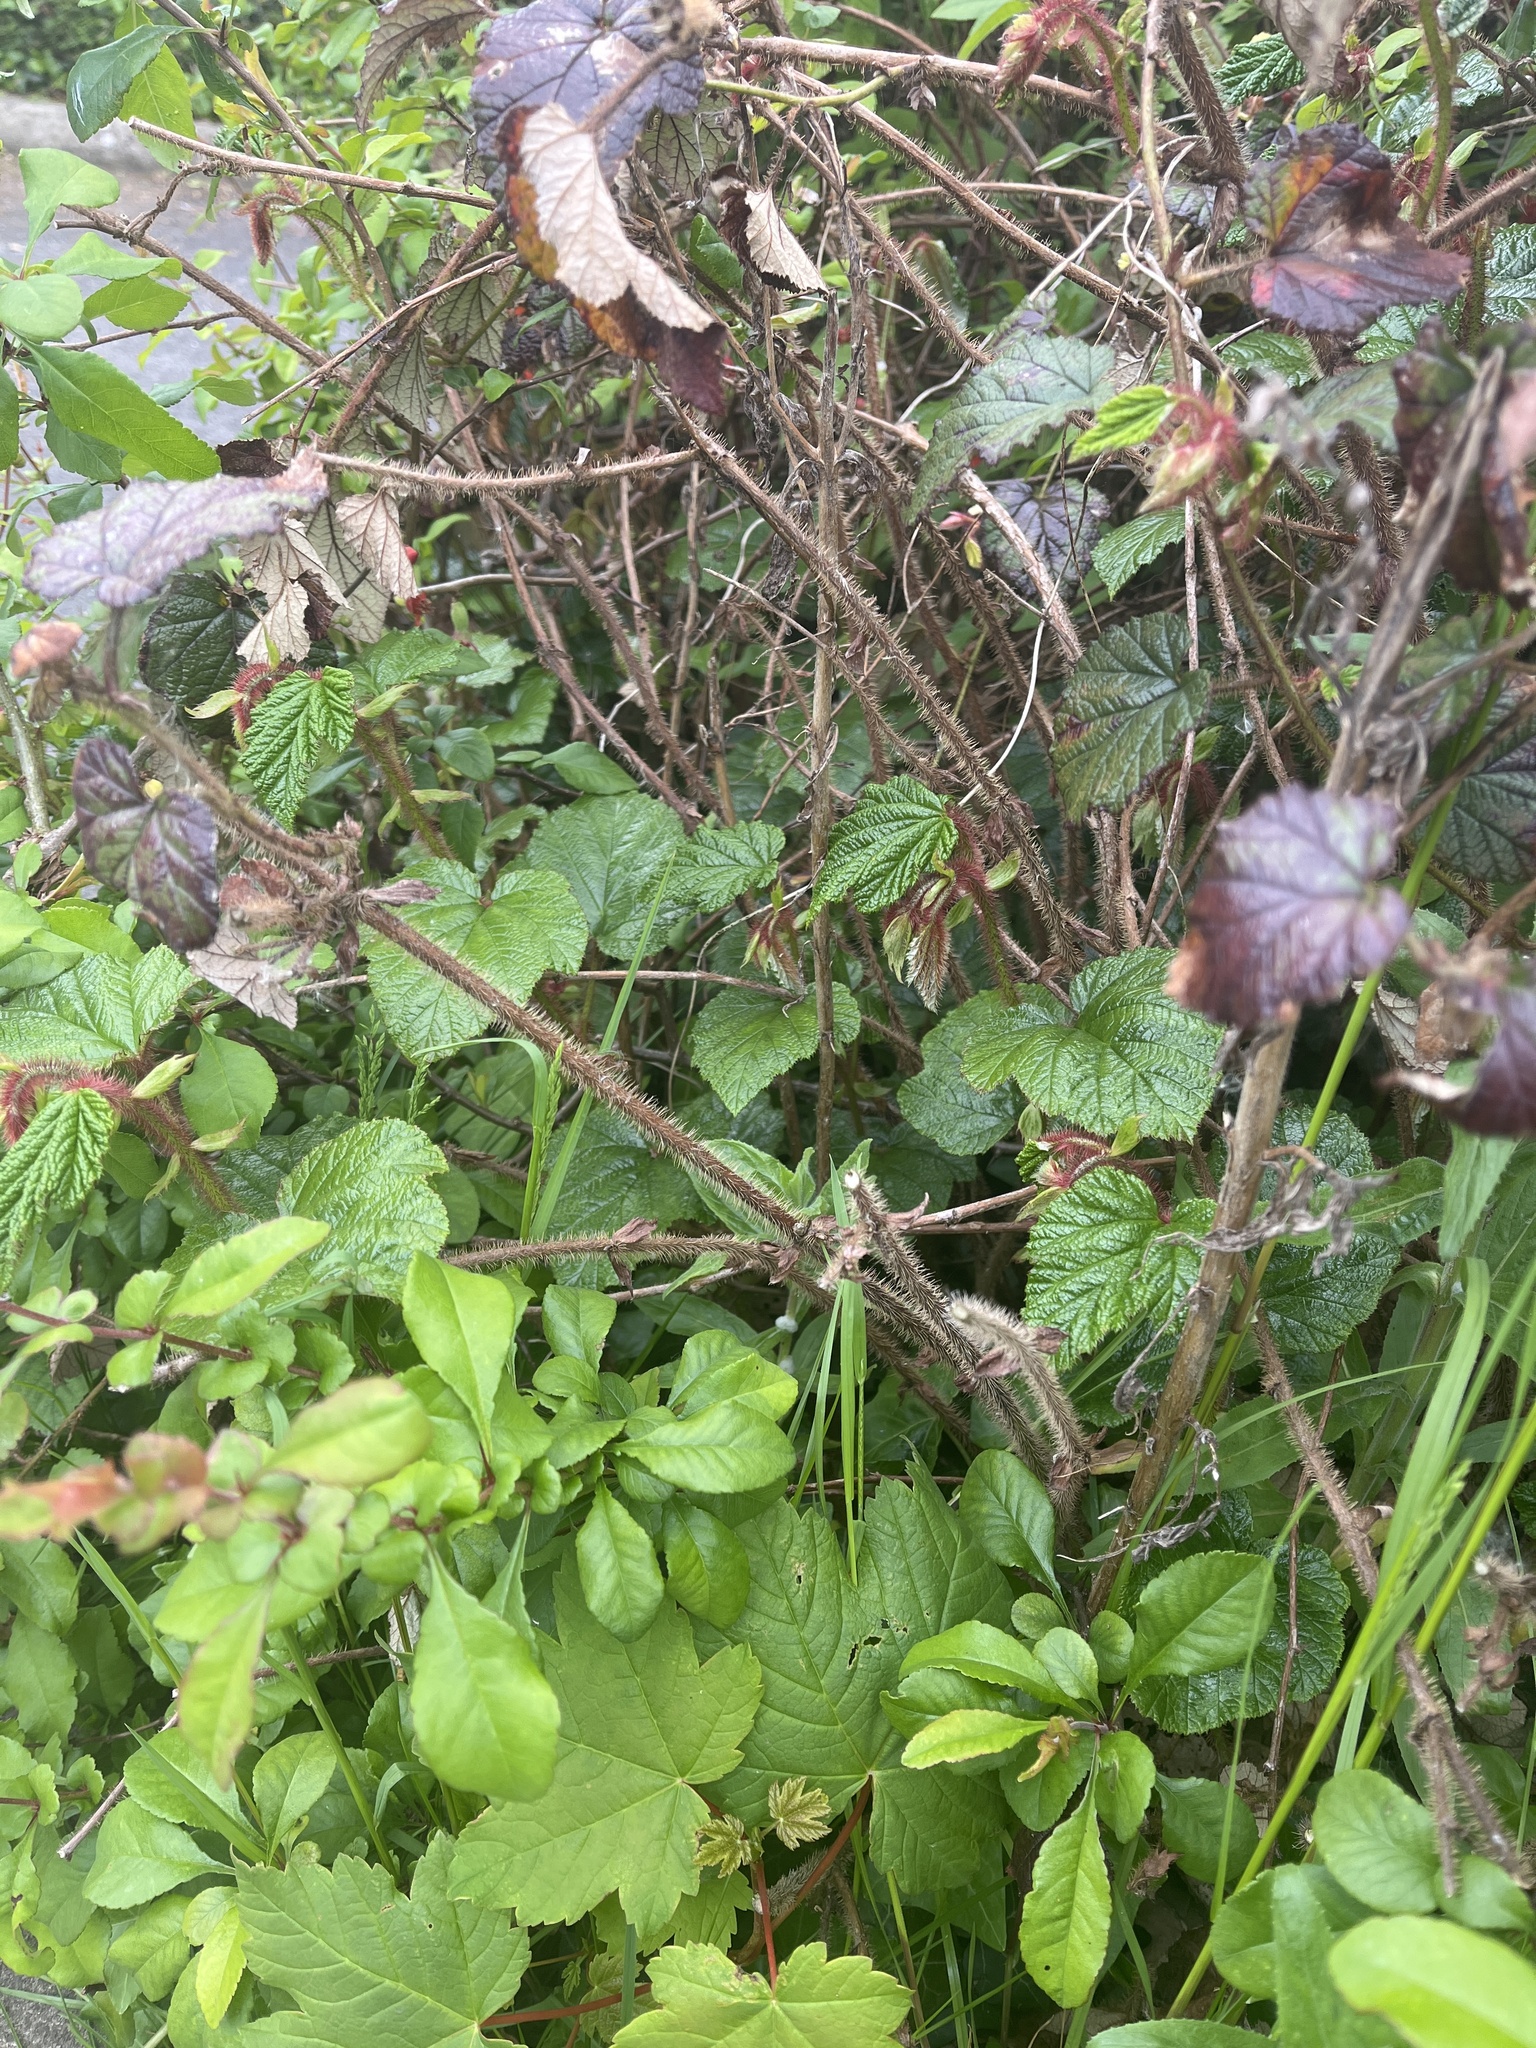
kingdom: Plantae
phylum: Tracheophyta
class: Magnoliopsida
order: Rosales
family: Rosaceae
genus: Rubus
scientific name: Rubus tricolor
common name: Chinese bramble
